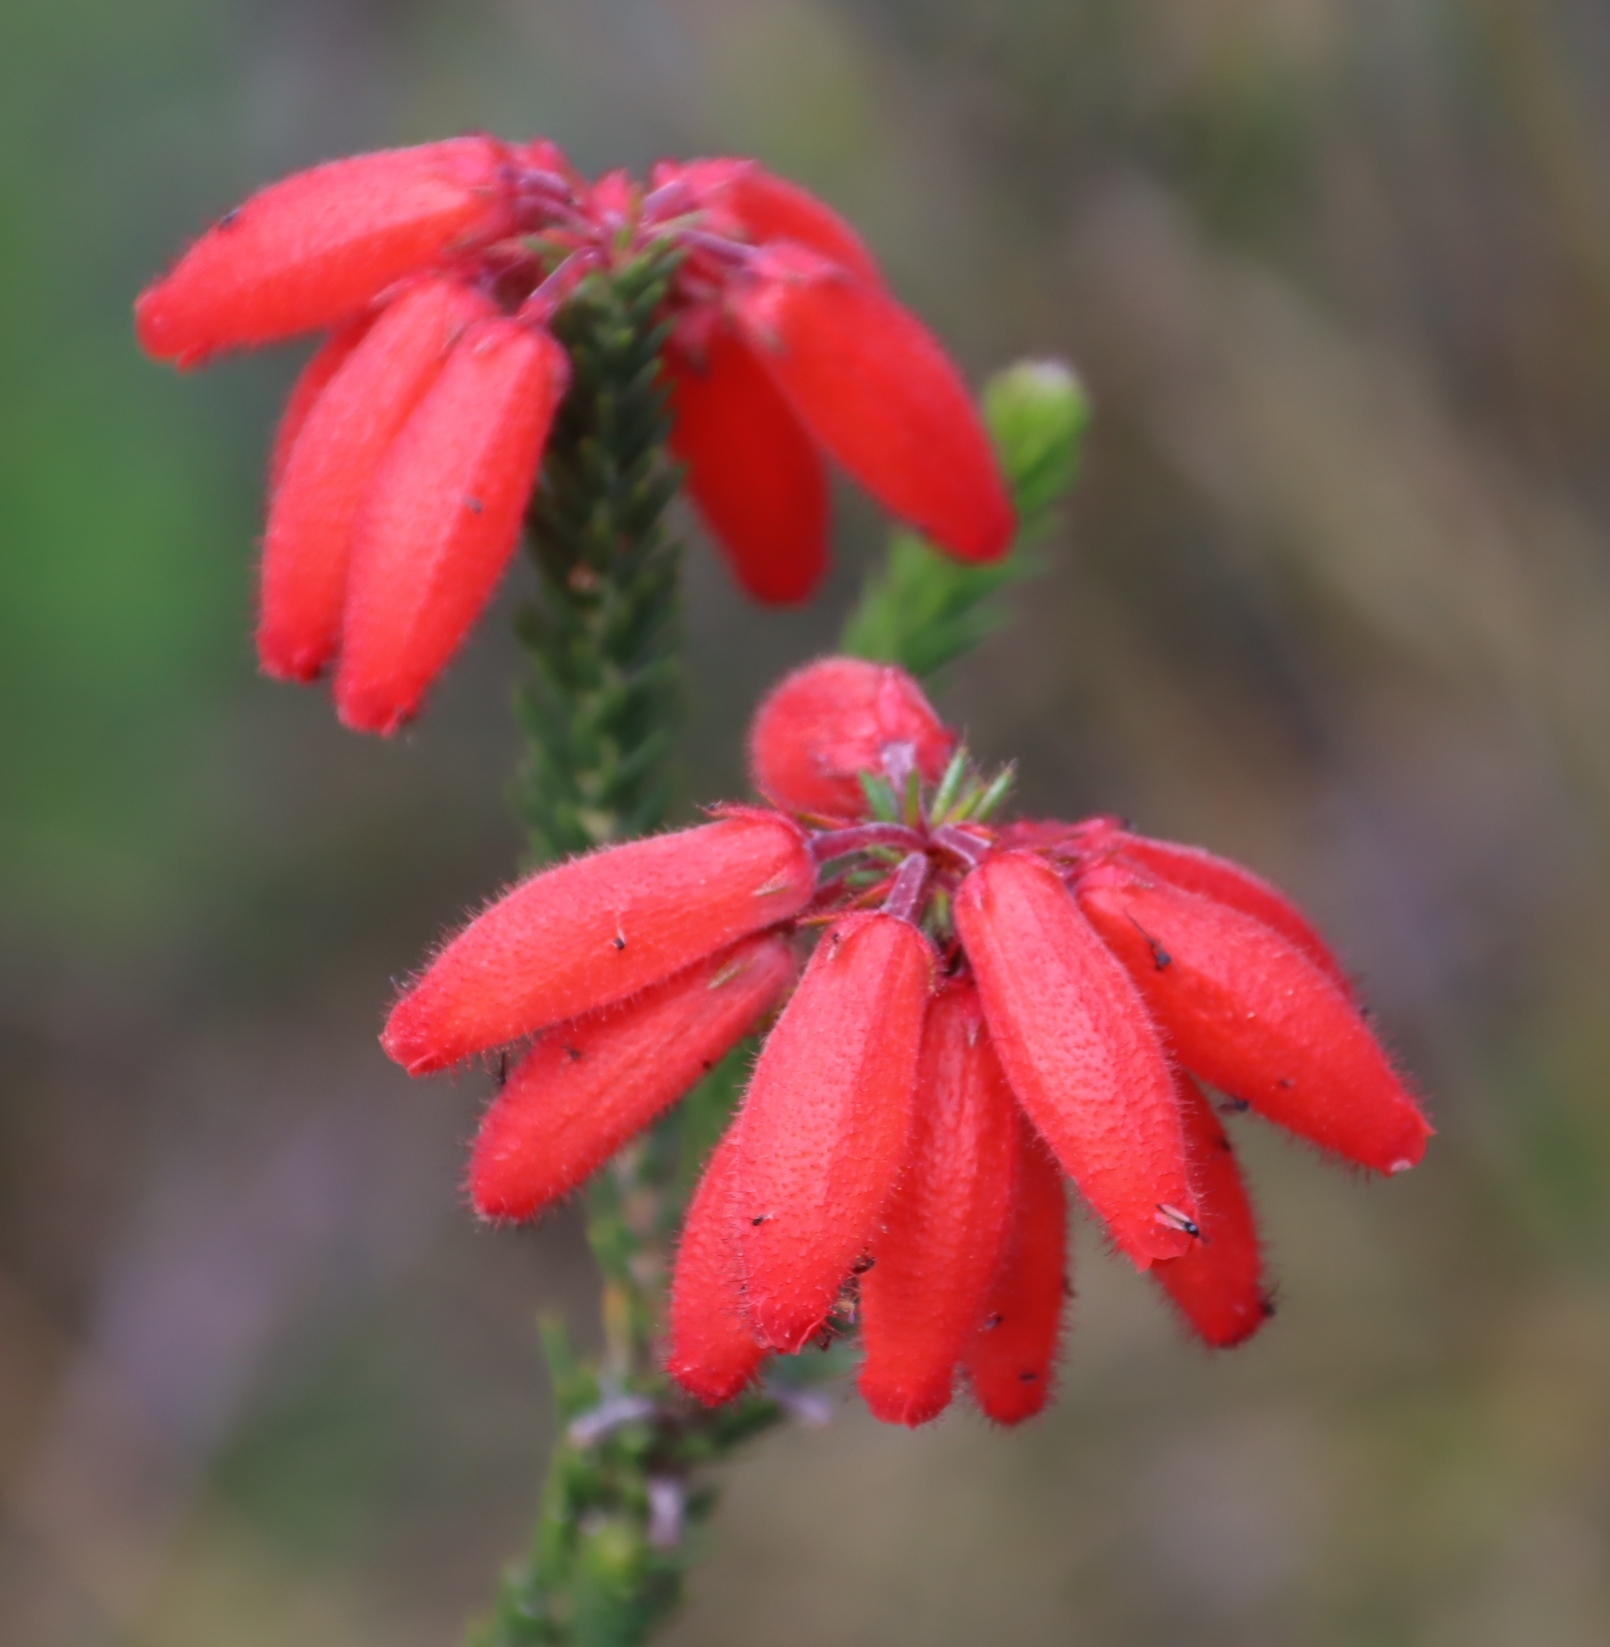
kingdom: Plantae
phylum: Tracheophyta
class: Magnoliopsida
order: Ericales
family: Ericaceae
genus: Erica
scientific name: Erica cerinthoides
